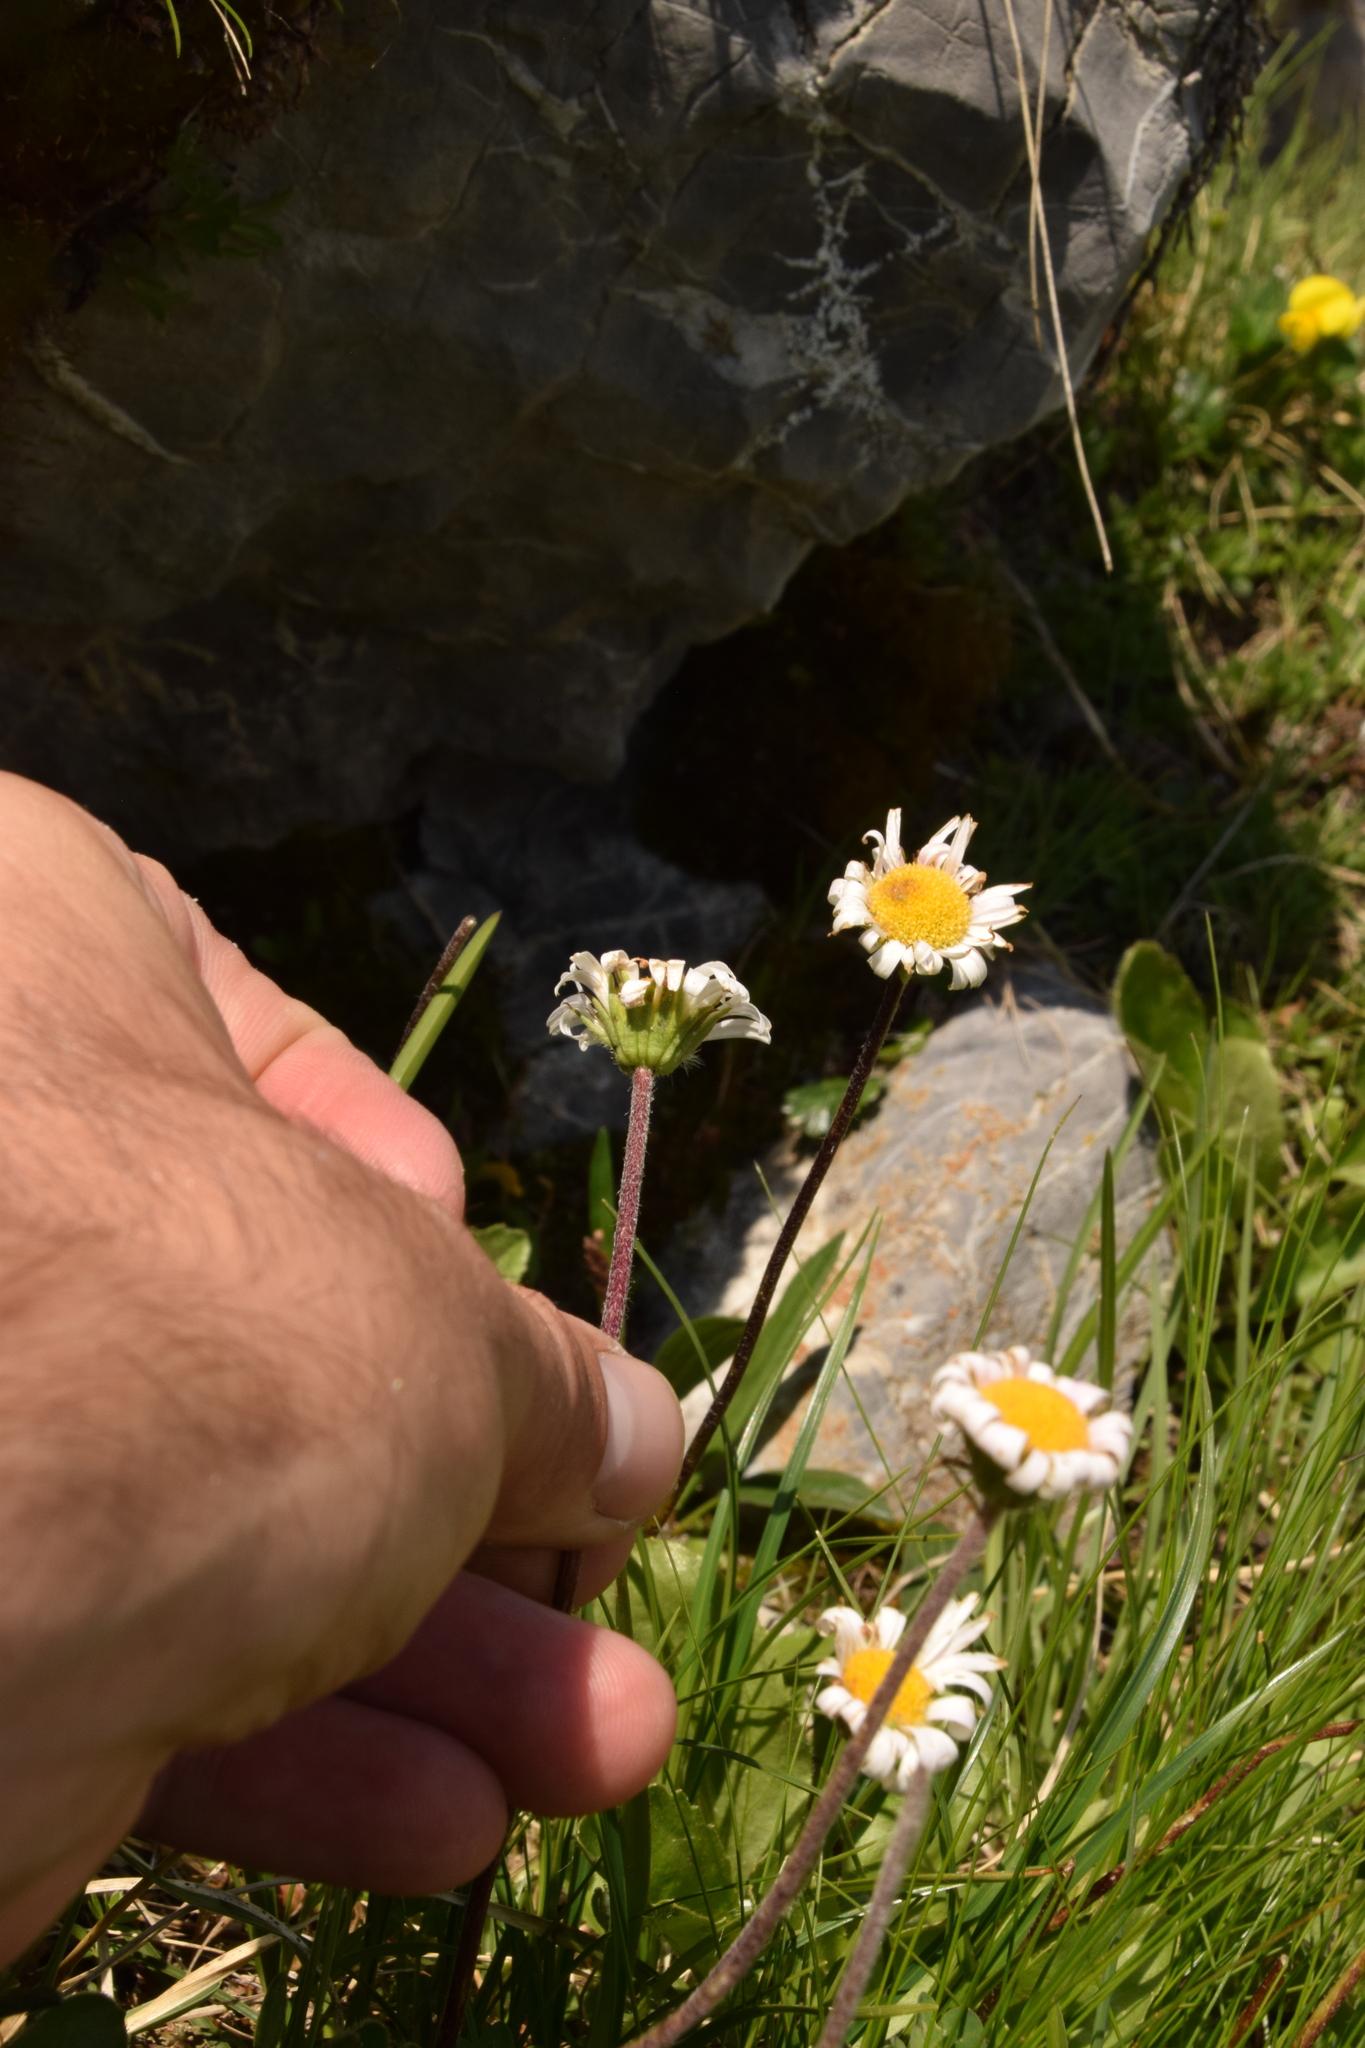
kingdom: Plantae
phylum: Tracheophyta
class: Magnoliopsida
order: Asterales
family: Asteraceae
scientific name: Asteraceae
